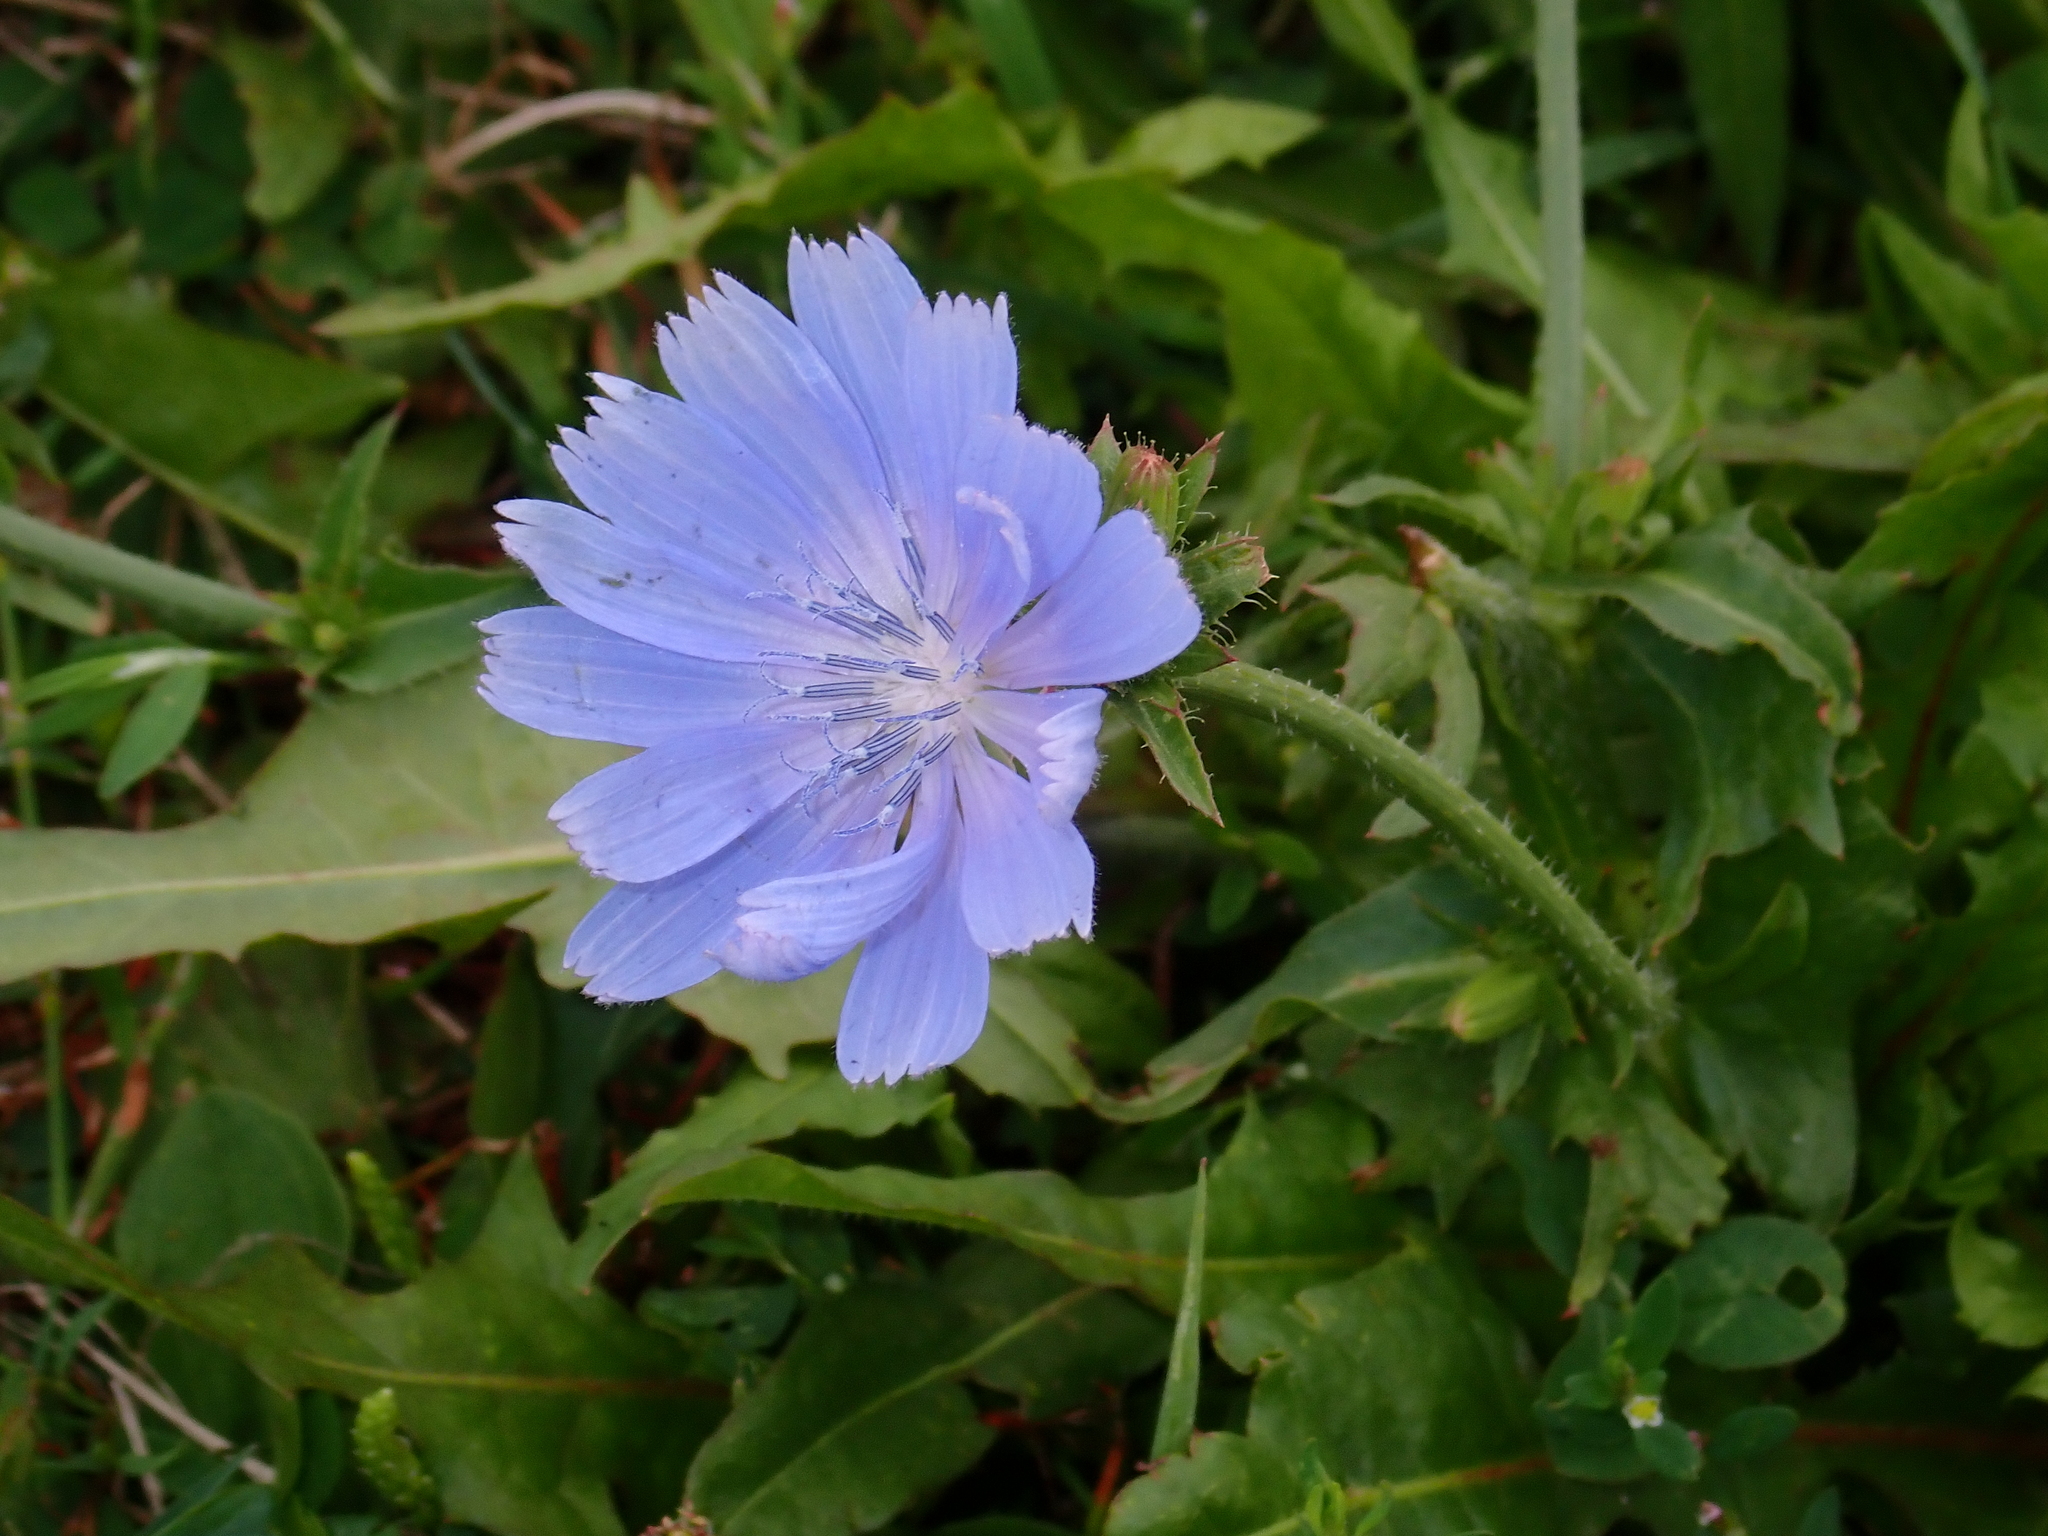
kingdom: Plantae
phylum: Tracheophyta
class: Magnoliopsida
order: Asterales
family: Asteraceae
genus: Cichorium
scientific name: Cichorium intybus
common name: Chicory
